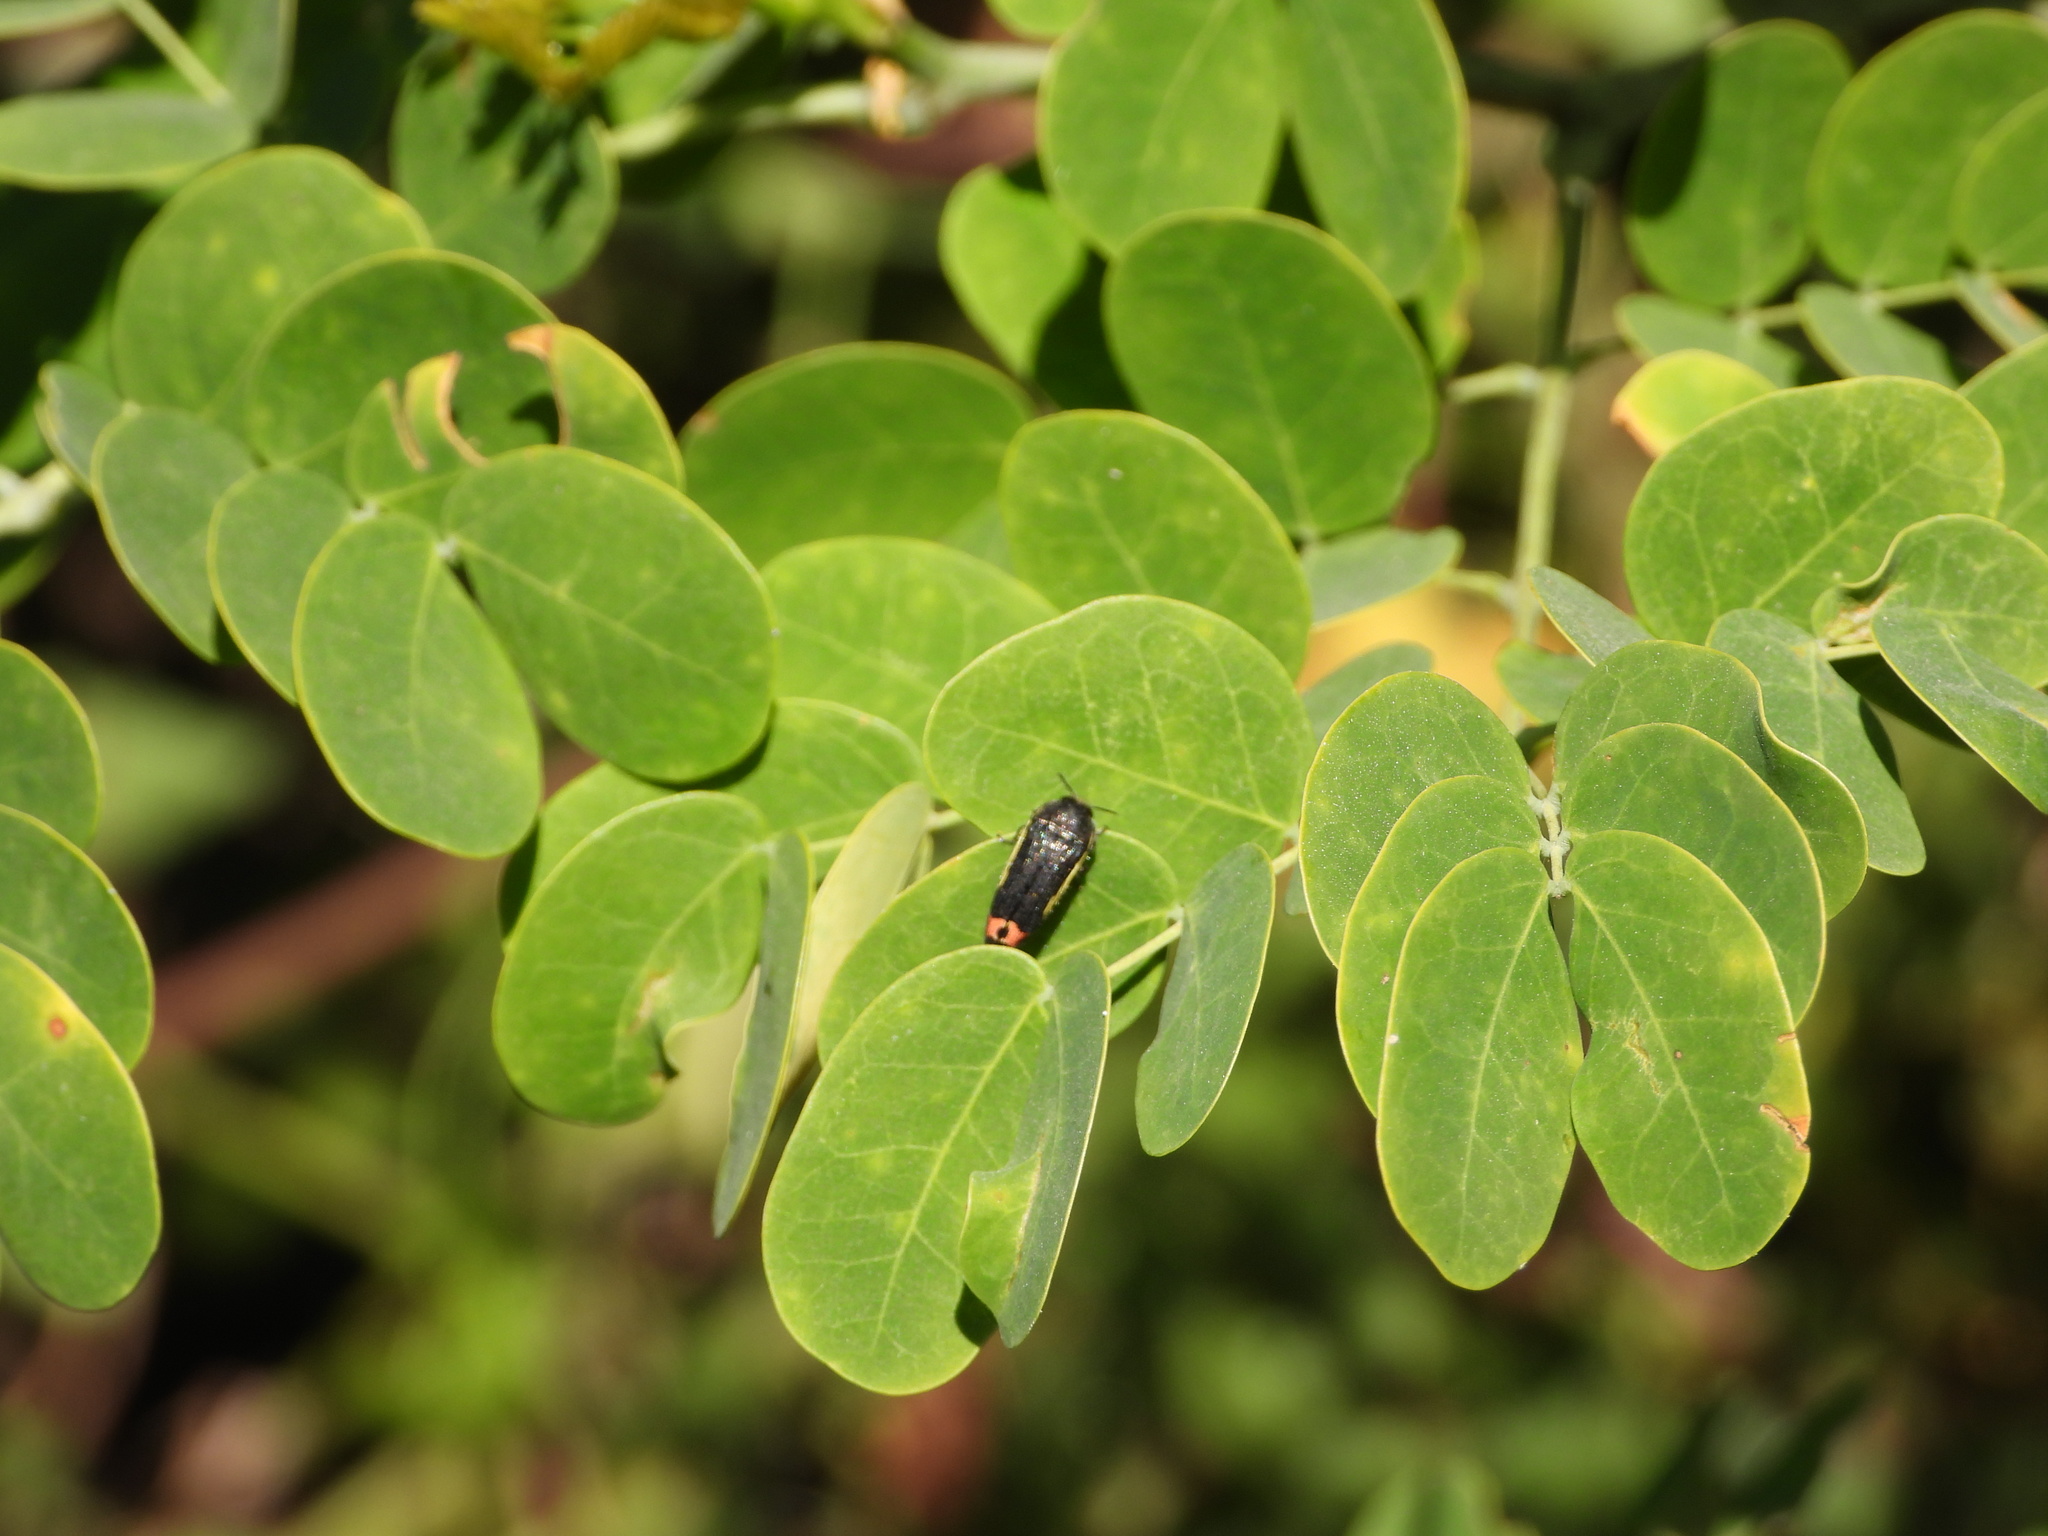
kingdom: Animalia
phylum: Arthropoda
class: Insecta
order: Coleoptera
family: Buprestidae
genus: Acmaeodera
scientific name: Acmaeodera flavomarginata
